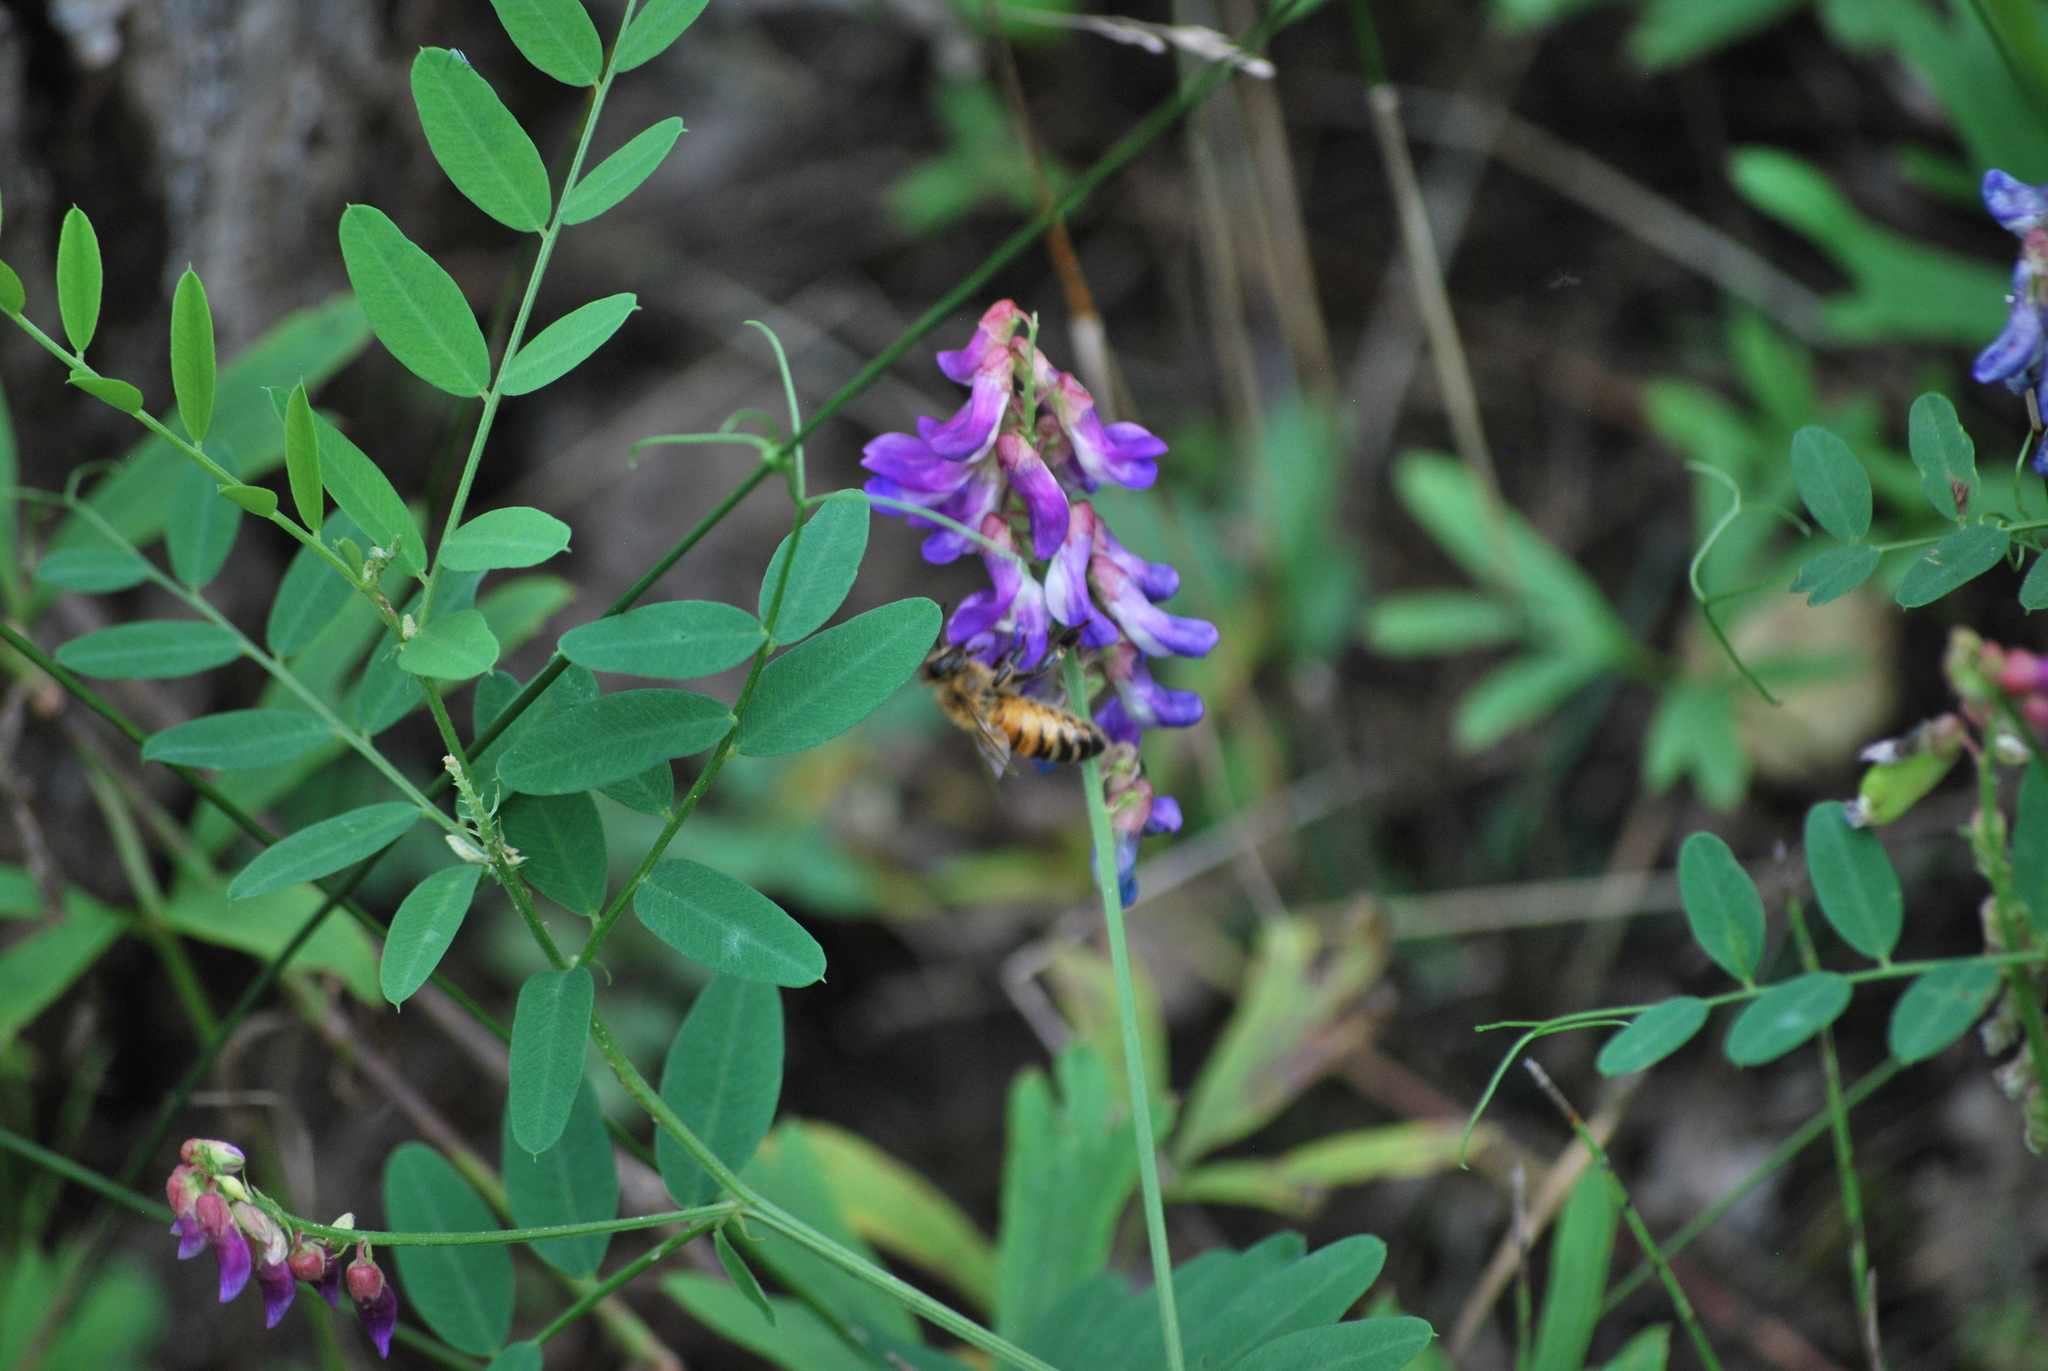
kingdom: Animalia
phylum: Arthropoda
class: Insecta
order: Hymenoptera
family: Apidae
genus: Apis
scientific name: Apis cerana
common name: Honey bee
